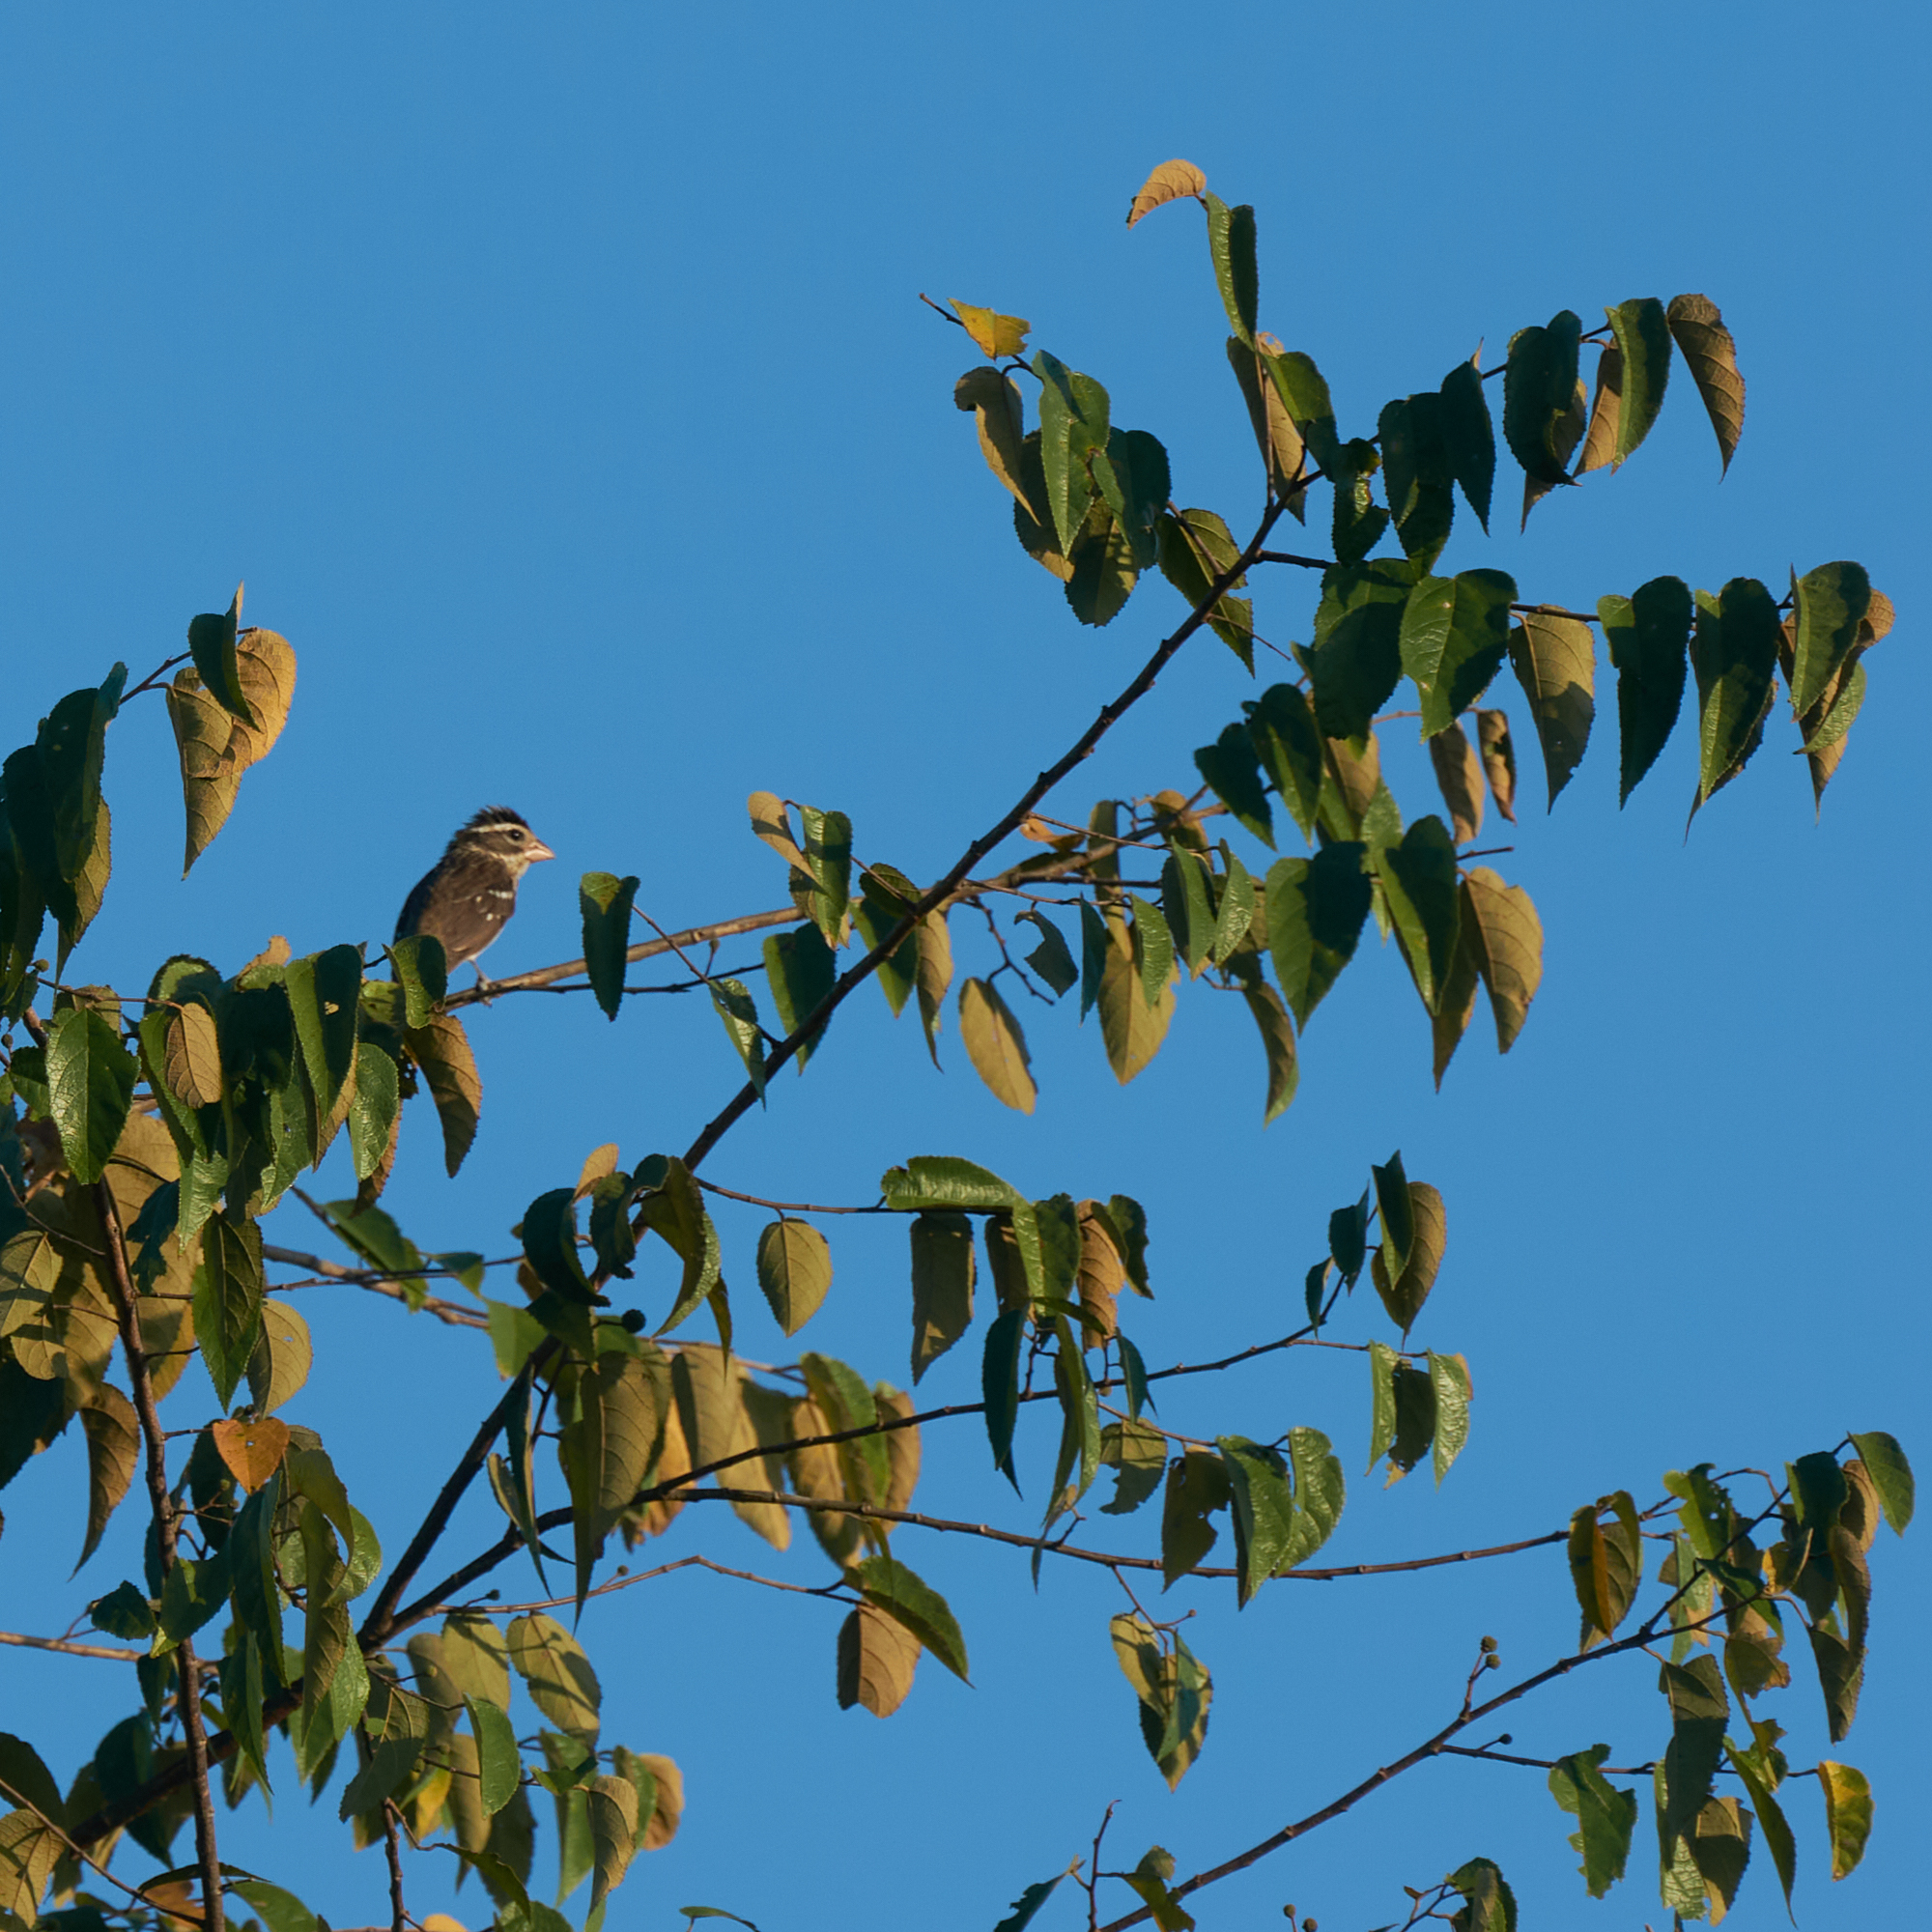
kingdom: Animalia
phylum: Chordata
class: Aves
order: Passeriformes
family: Cardinalidae
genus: Pheucticus
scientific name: Pheucticus ludovicianus
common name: Rose-breasted grosbeak
